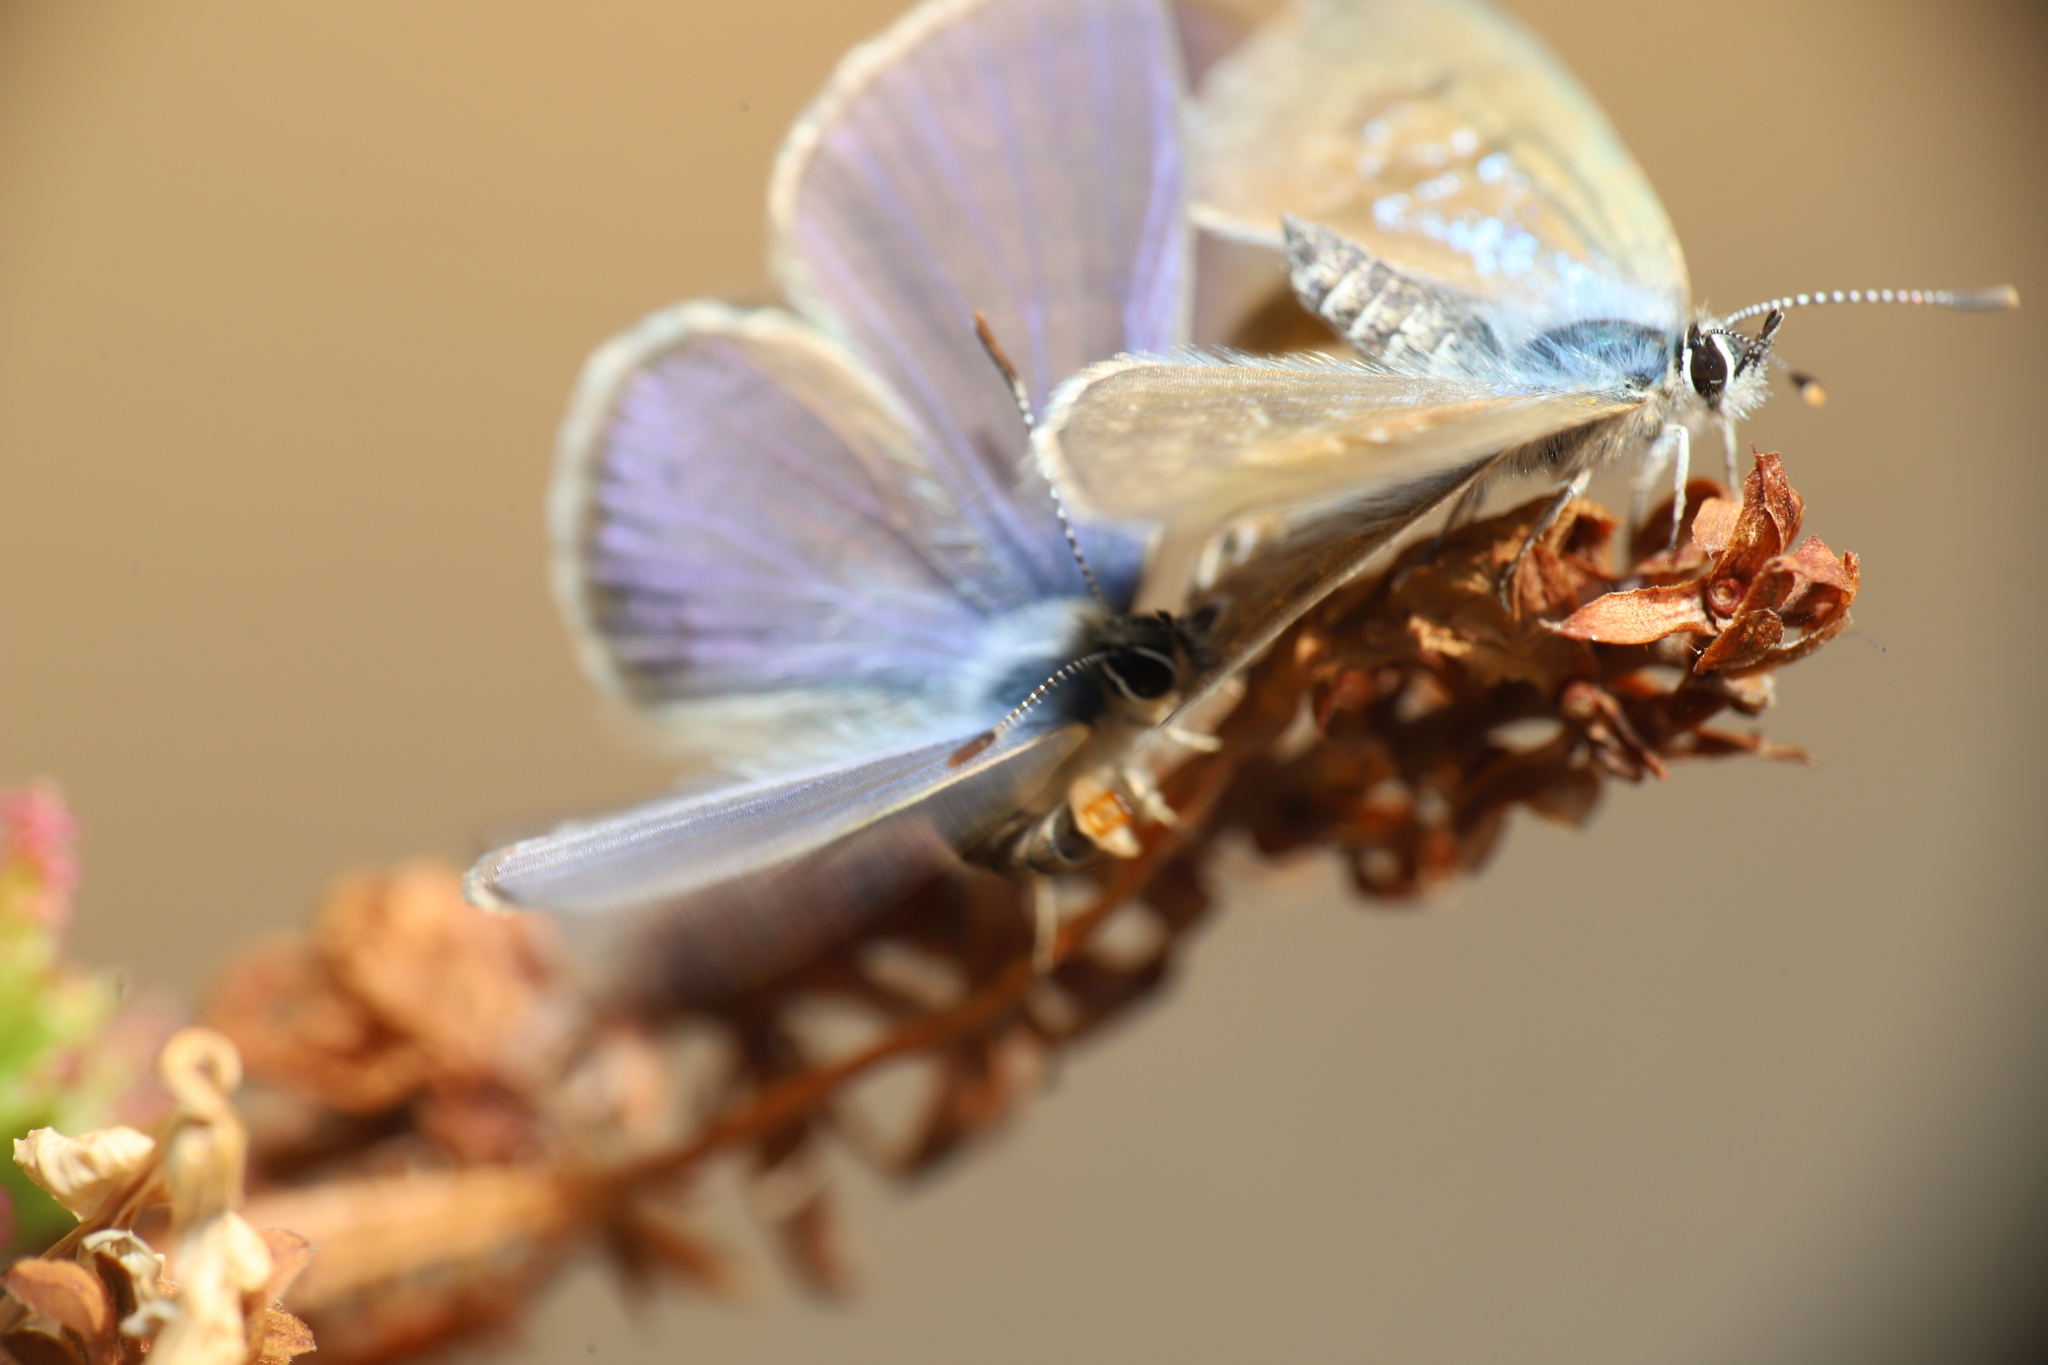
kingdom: Animalia
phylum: Arthropoda
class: Insecta
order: Lepidoptera
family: Lycaenidae
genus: Leptotes
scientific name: Leptotes trigemmatus
